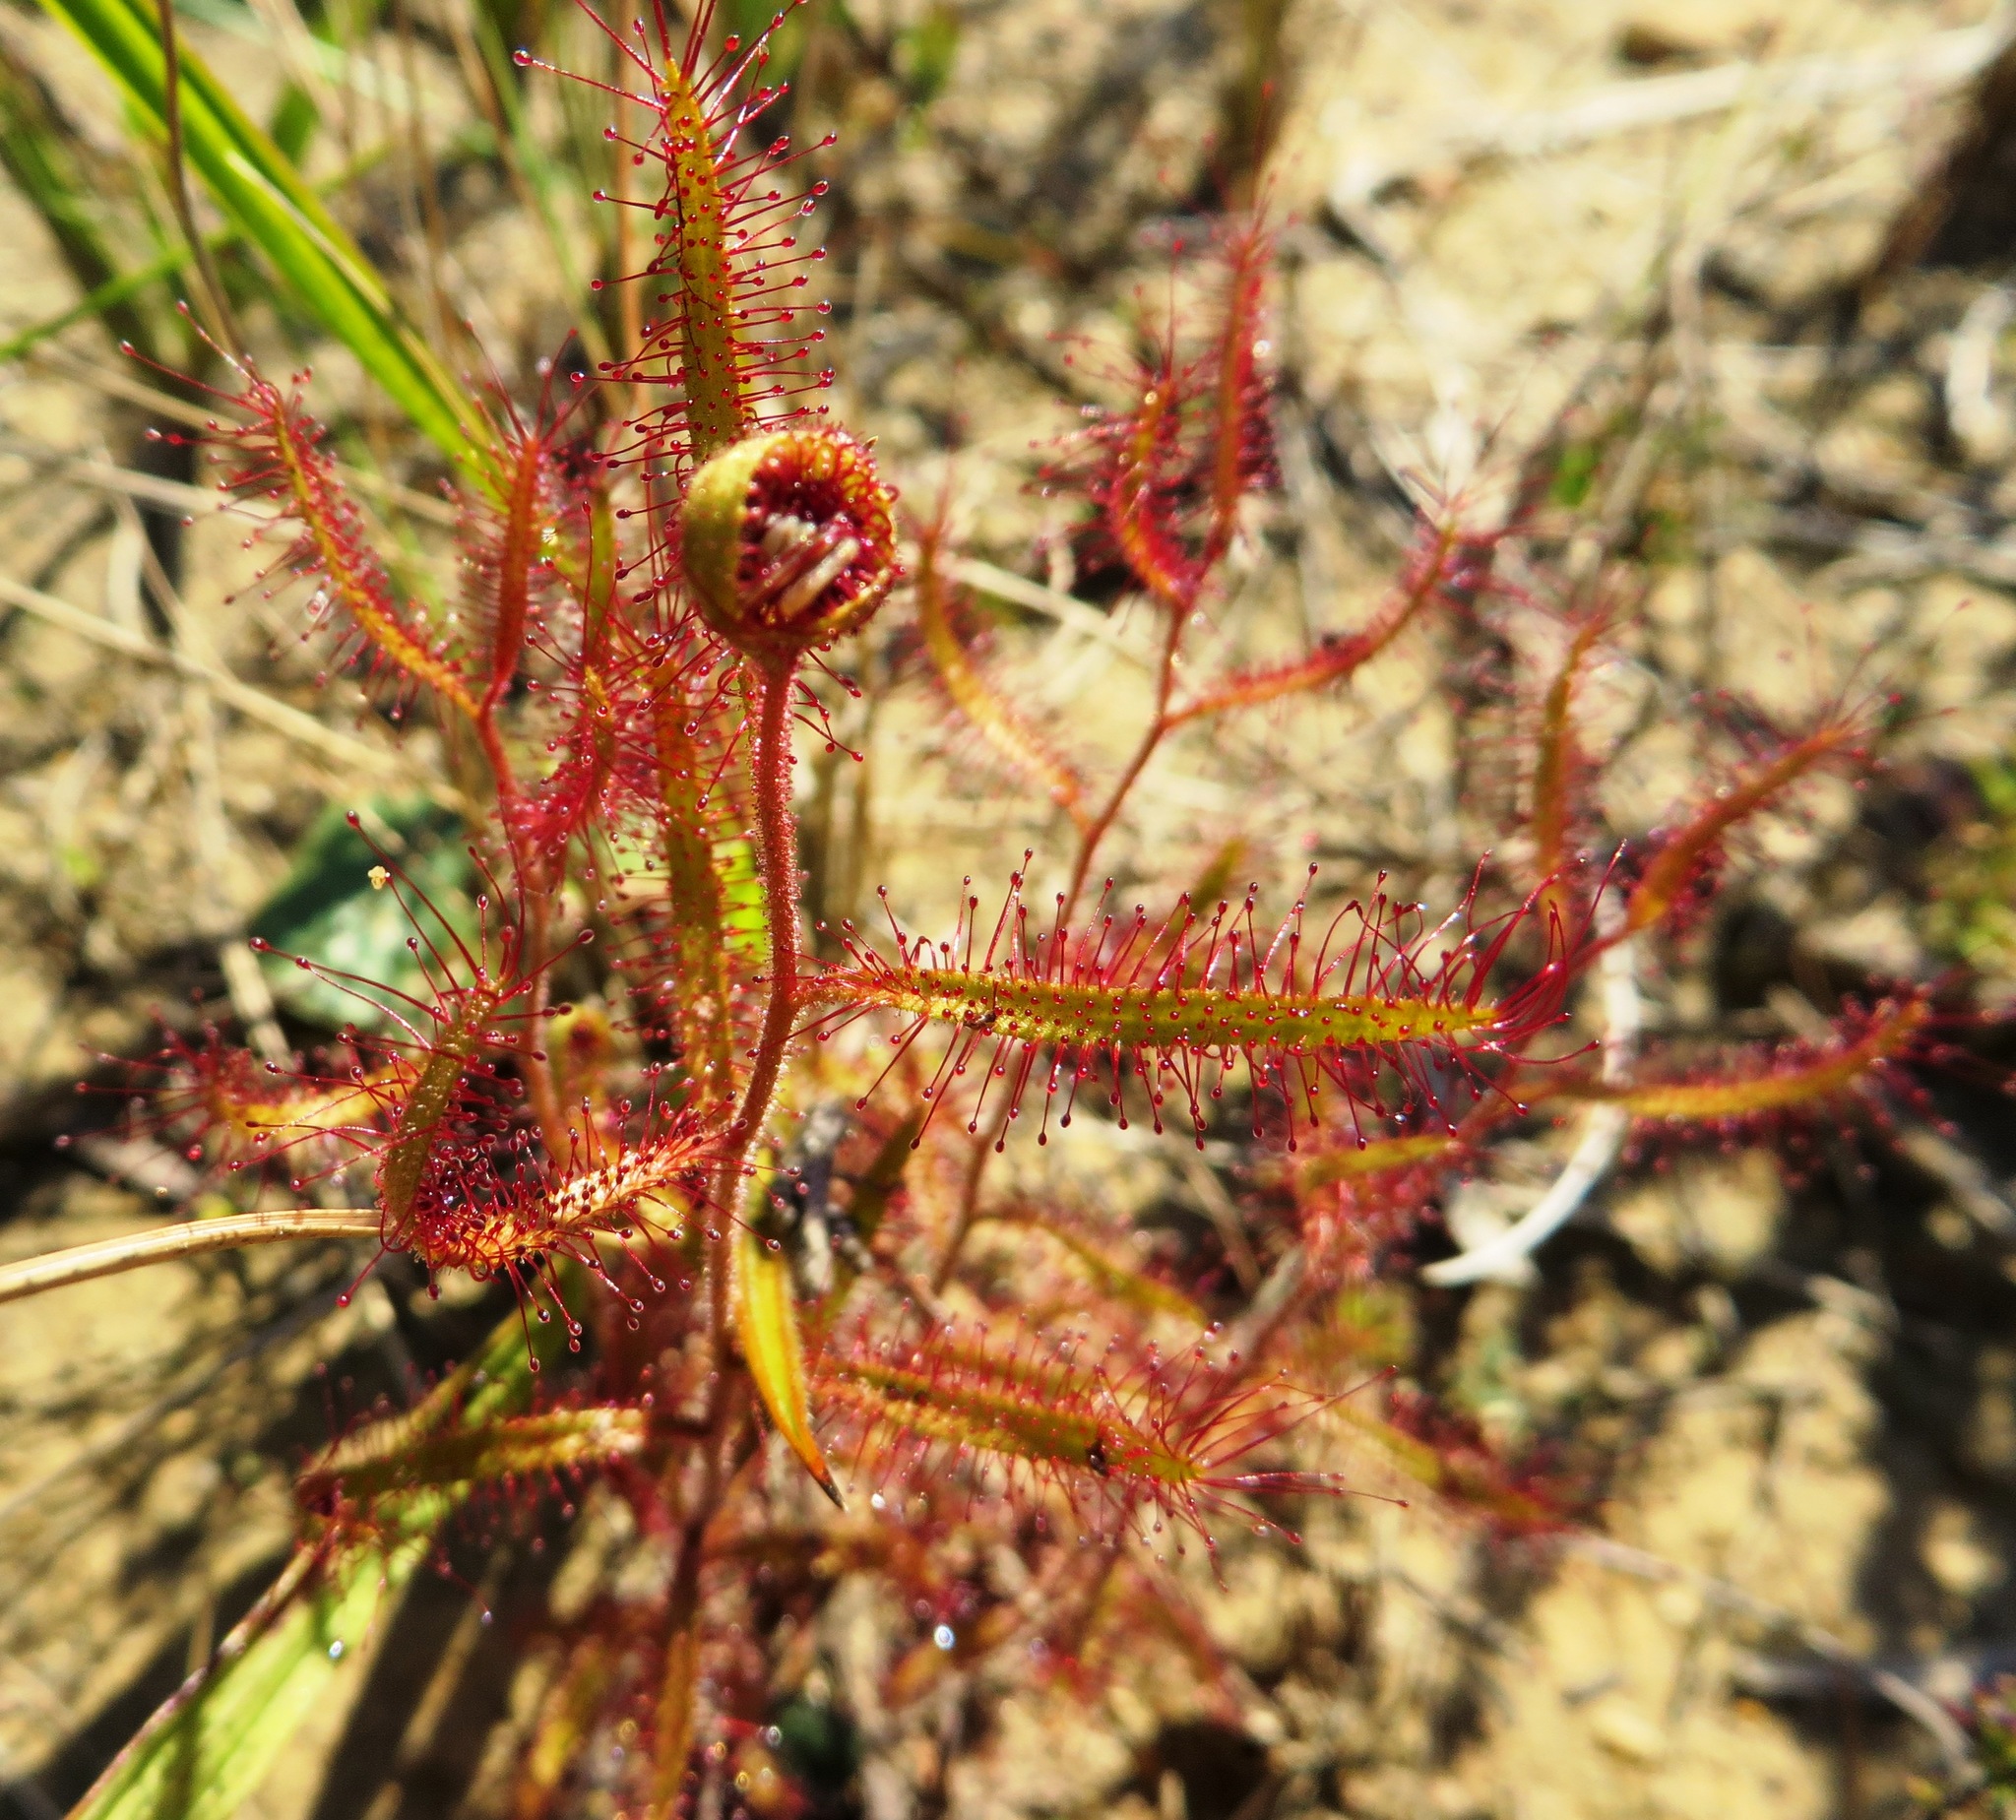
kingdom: Plantae
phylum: Tracheophyta
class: Magnoliopsida
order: Caryophyllales
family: Droseraceae
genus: Drosera
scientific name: Drosera cistiflora
